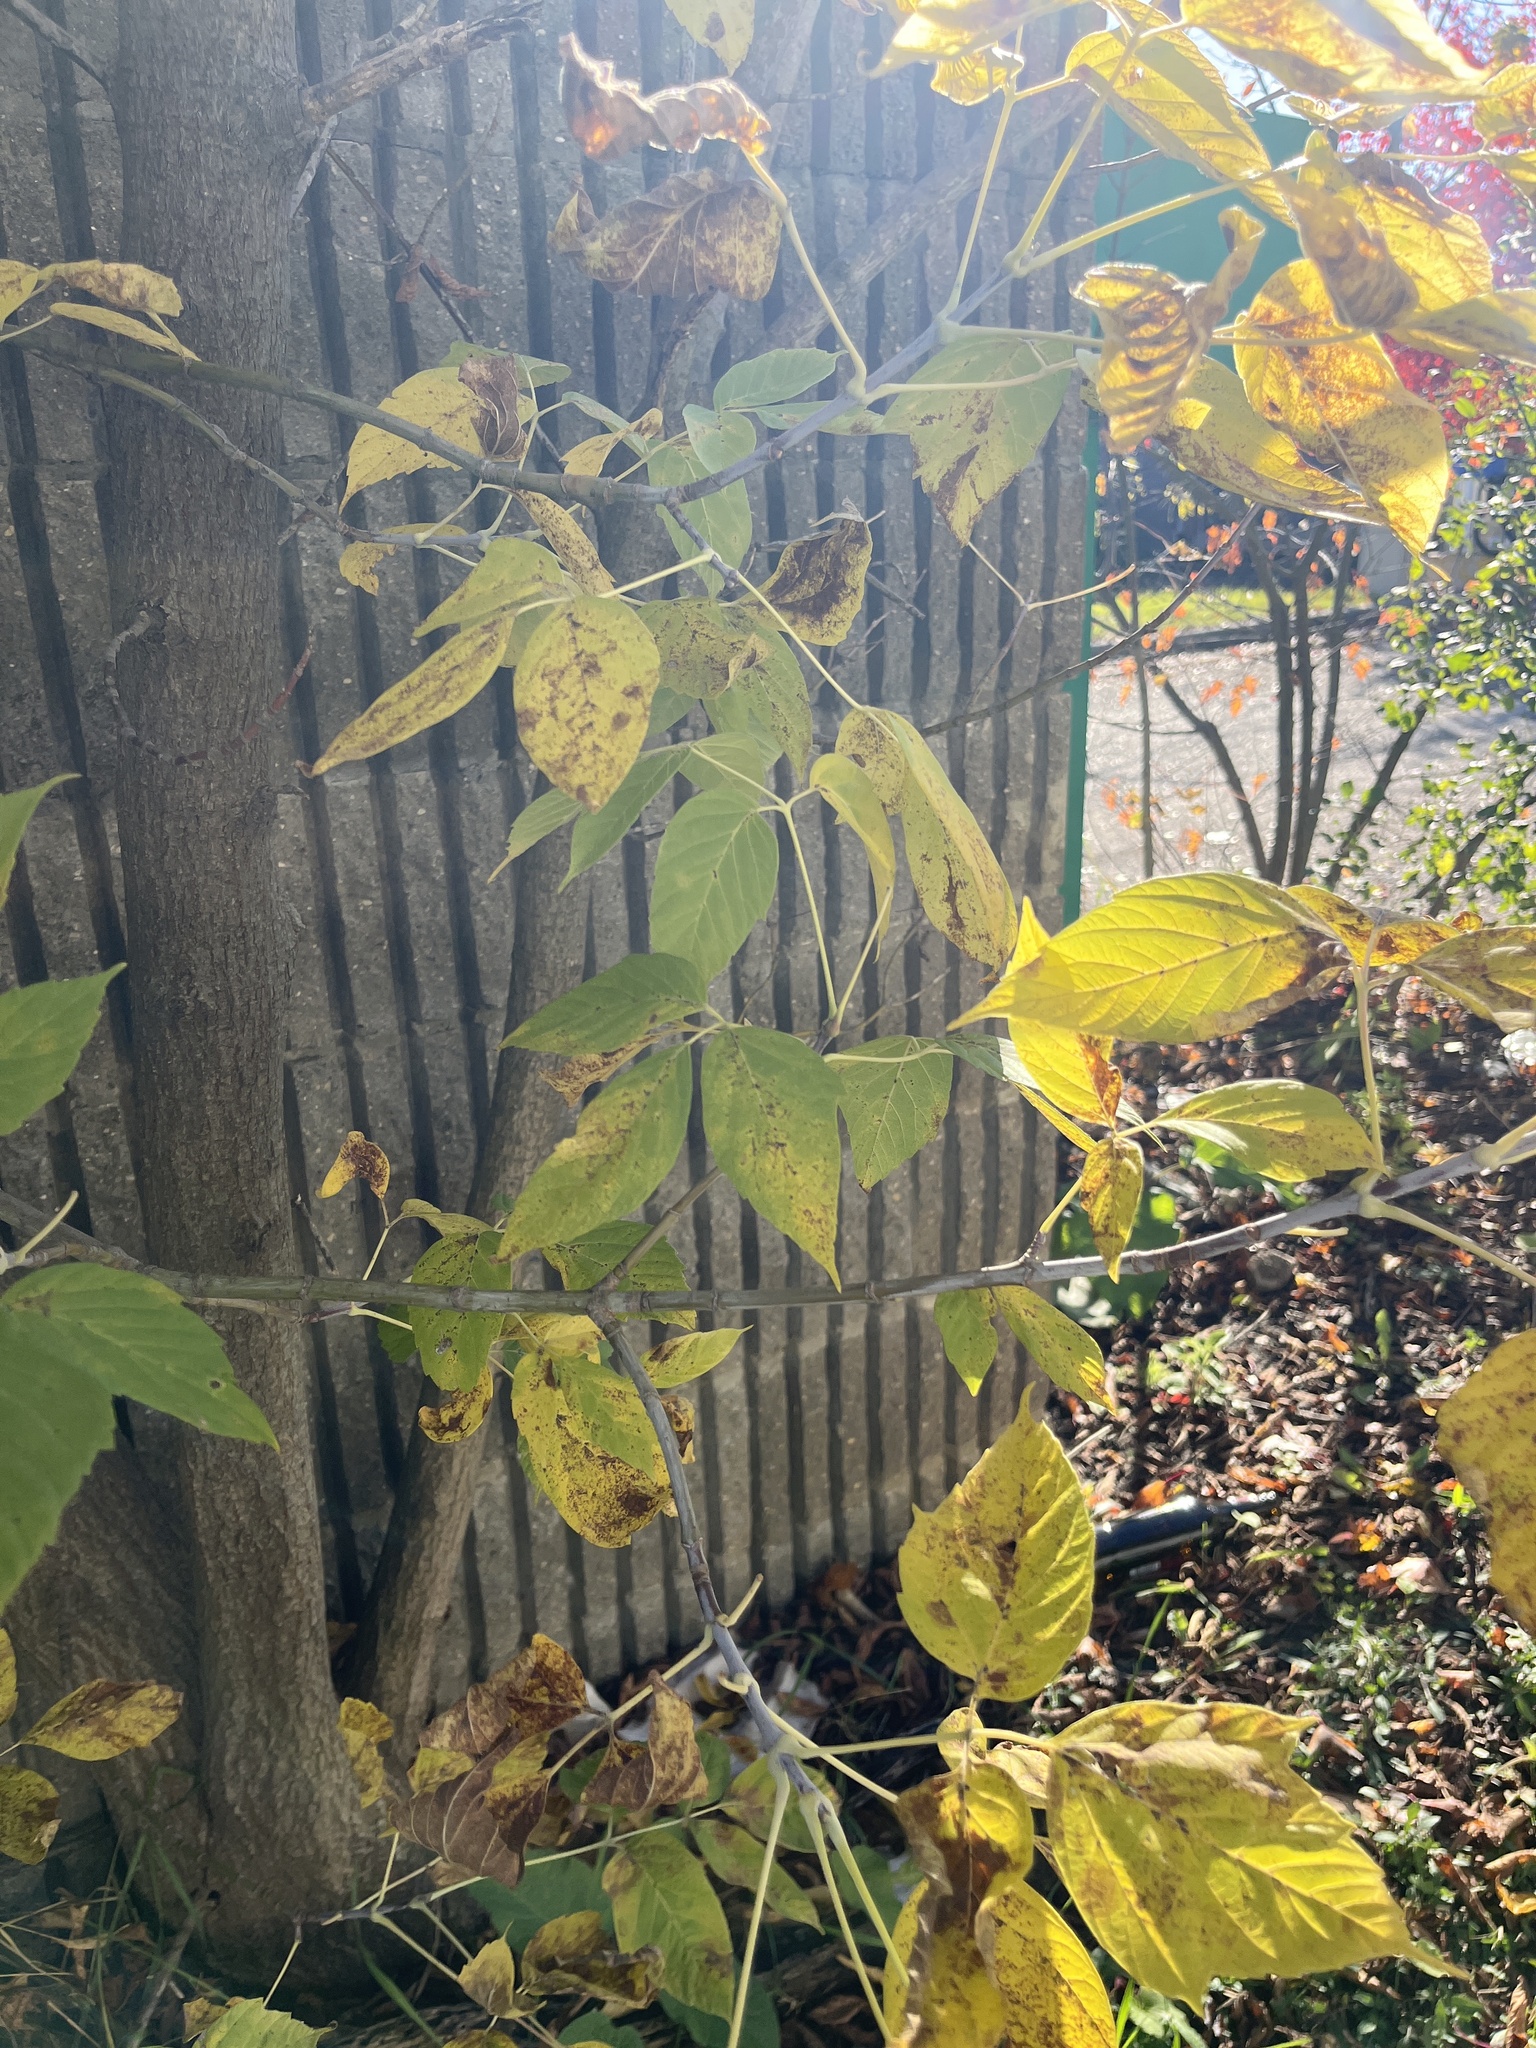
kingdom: Plantae
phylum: Tracheophyta
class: Magnoliopsida
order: Sapindales
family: Sapindaceae
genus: Acer
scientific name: Acer negundo
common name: Ashleaf maple
